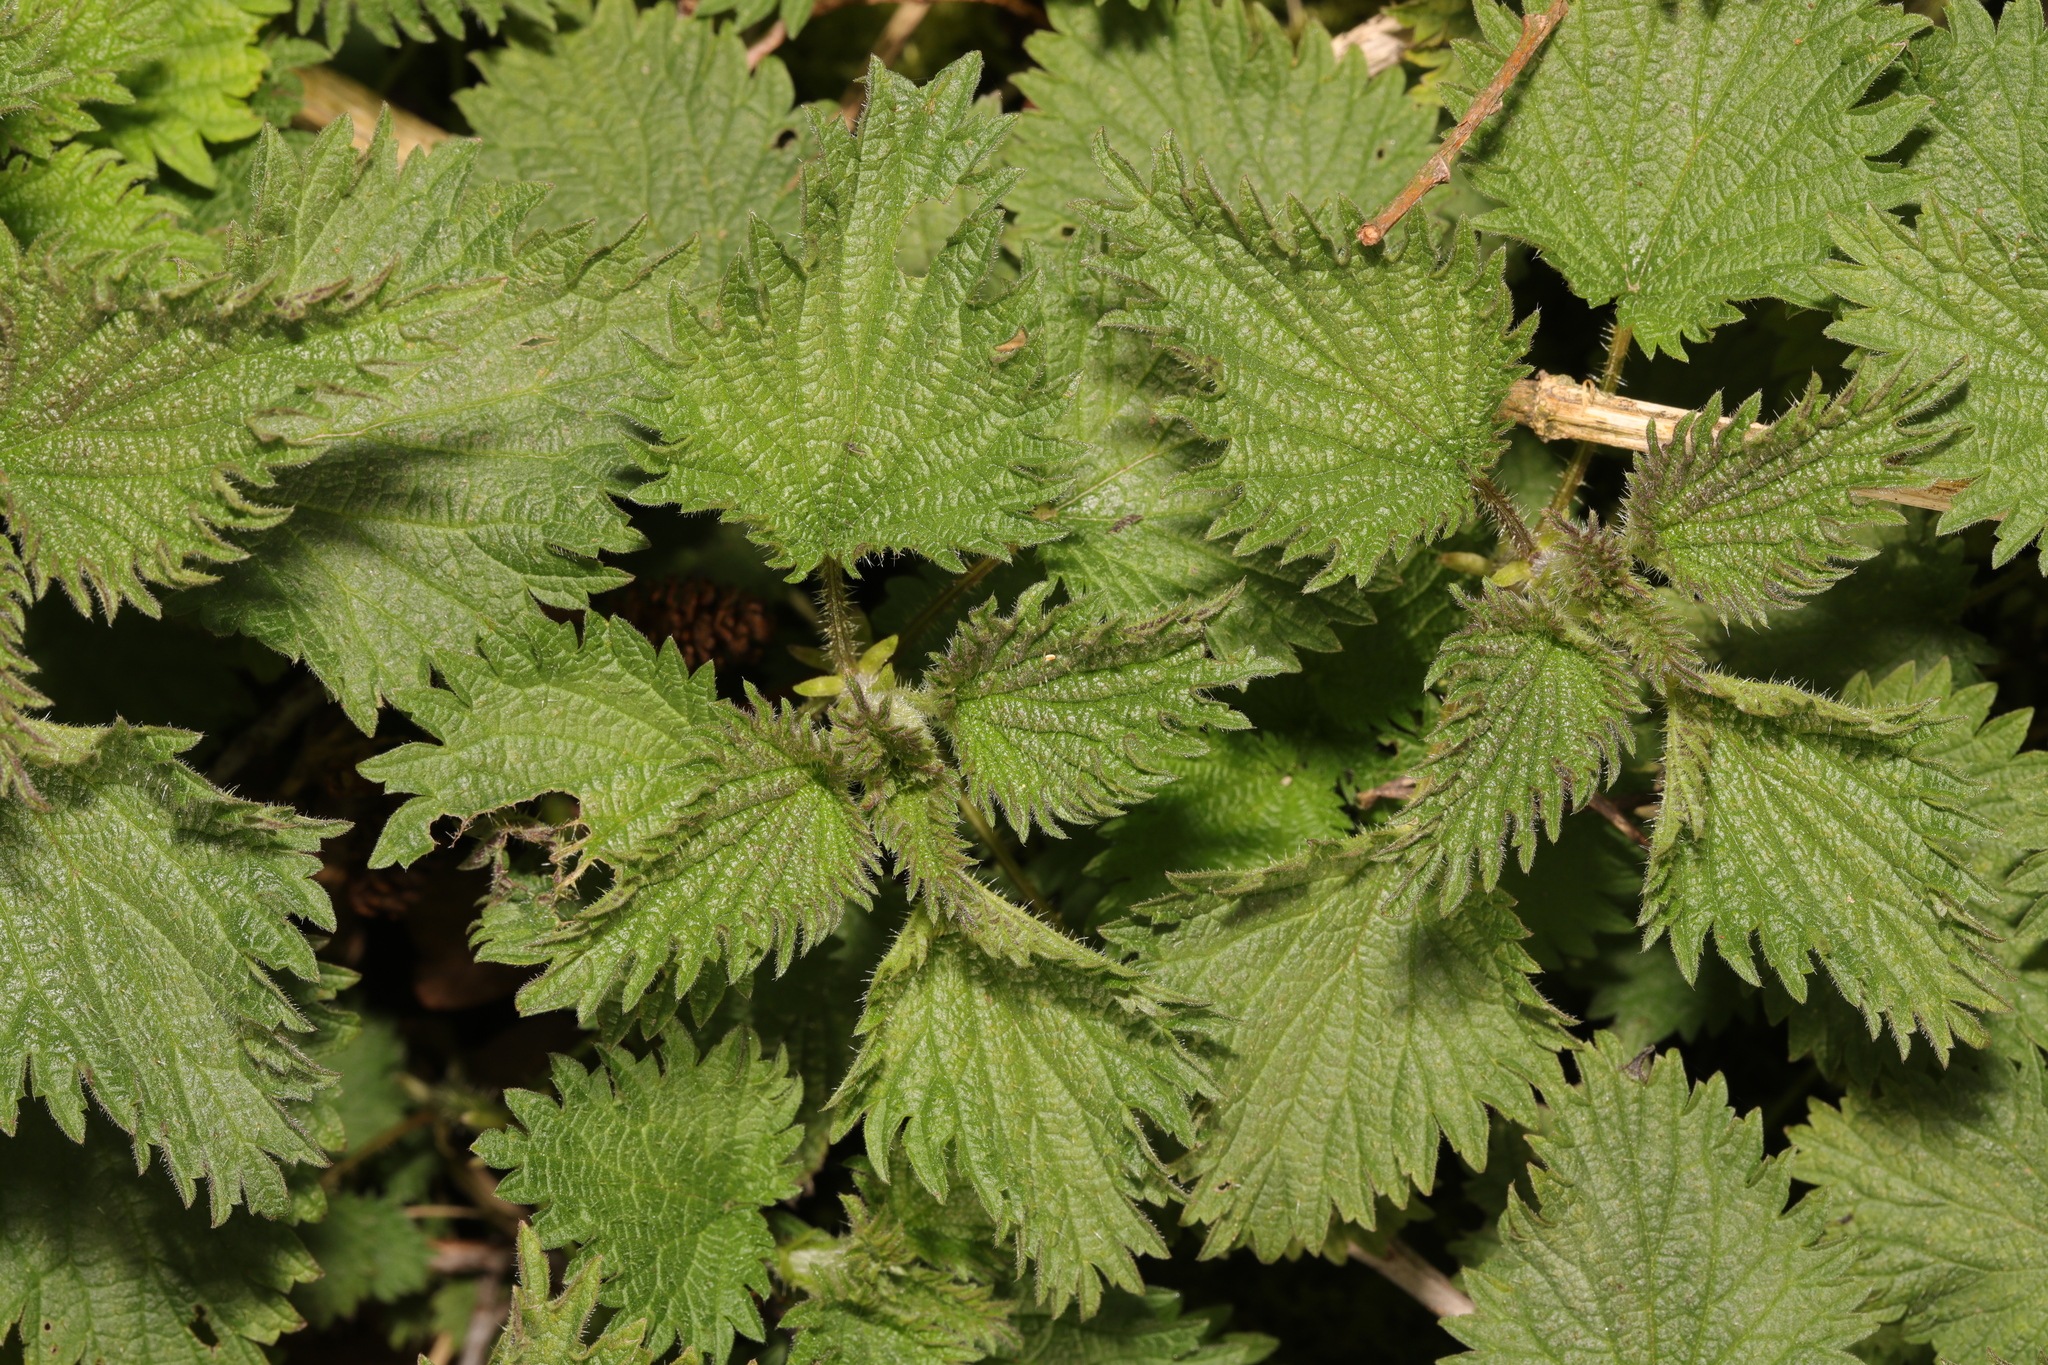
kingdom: Plantae
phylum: Tracheophyta
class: Magnoliopsida
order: Rosales
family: Urticaceae
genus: Urtica
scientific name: Urtica dioica
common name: Common nettle
